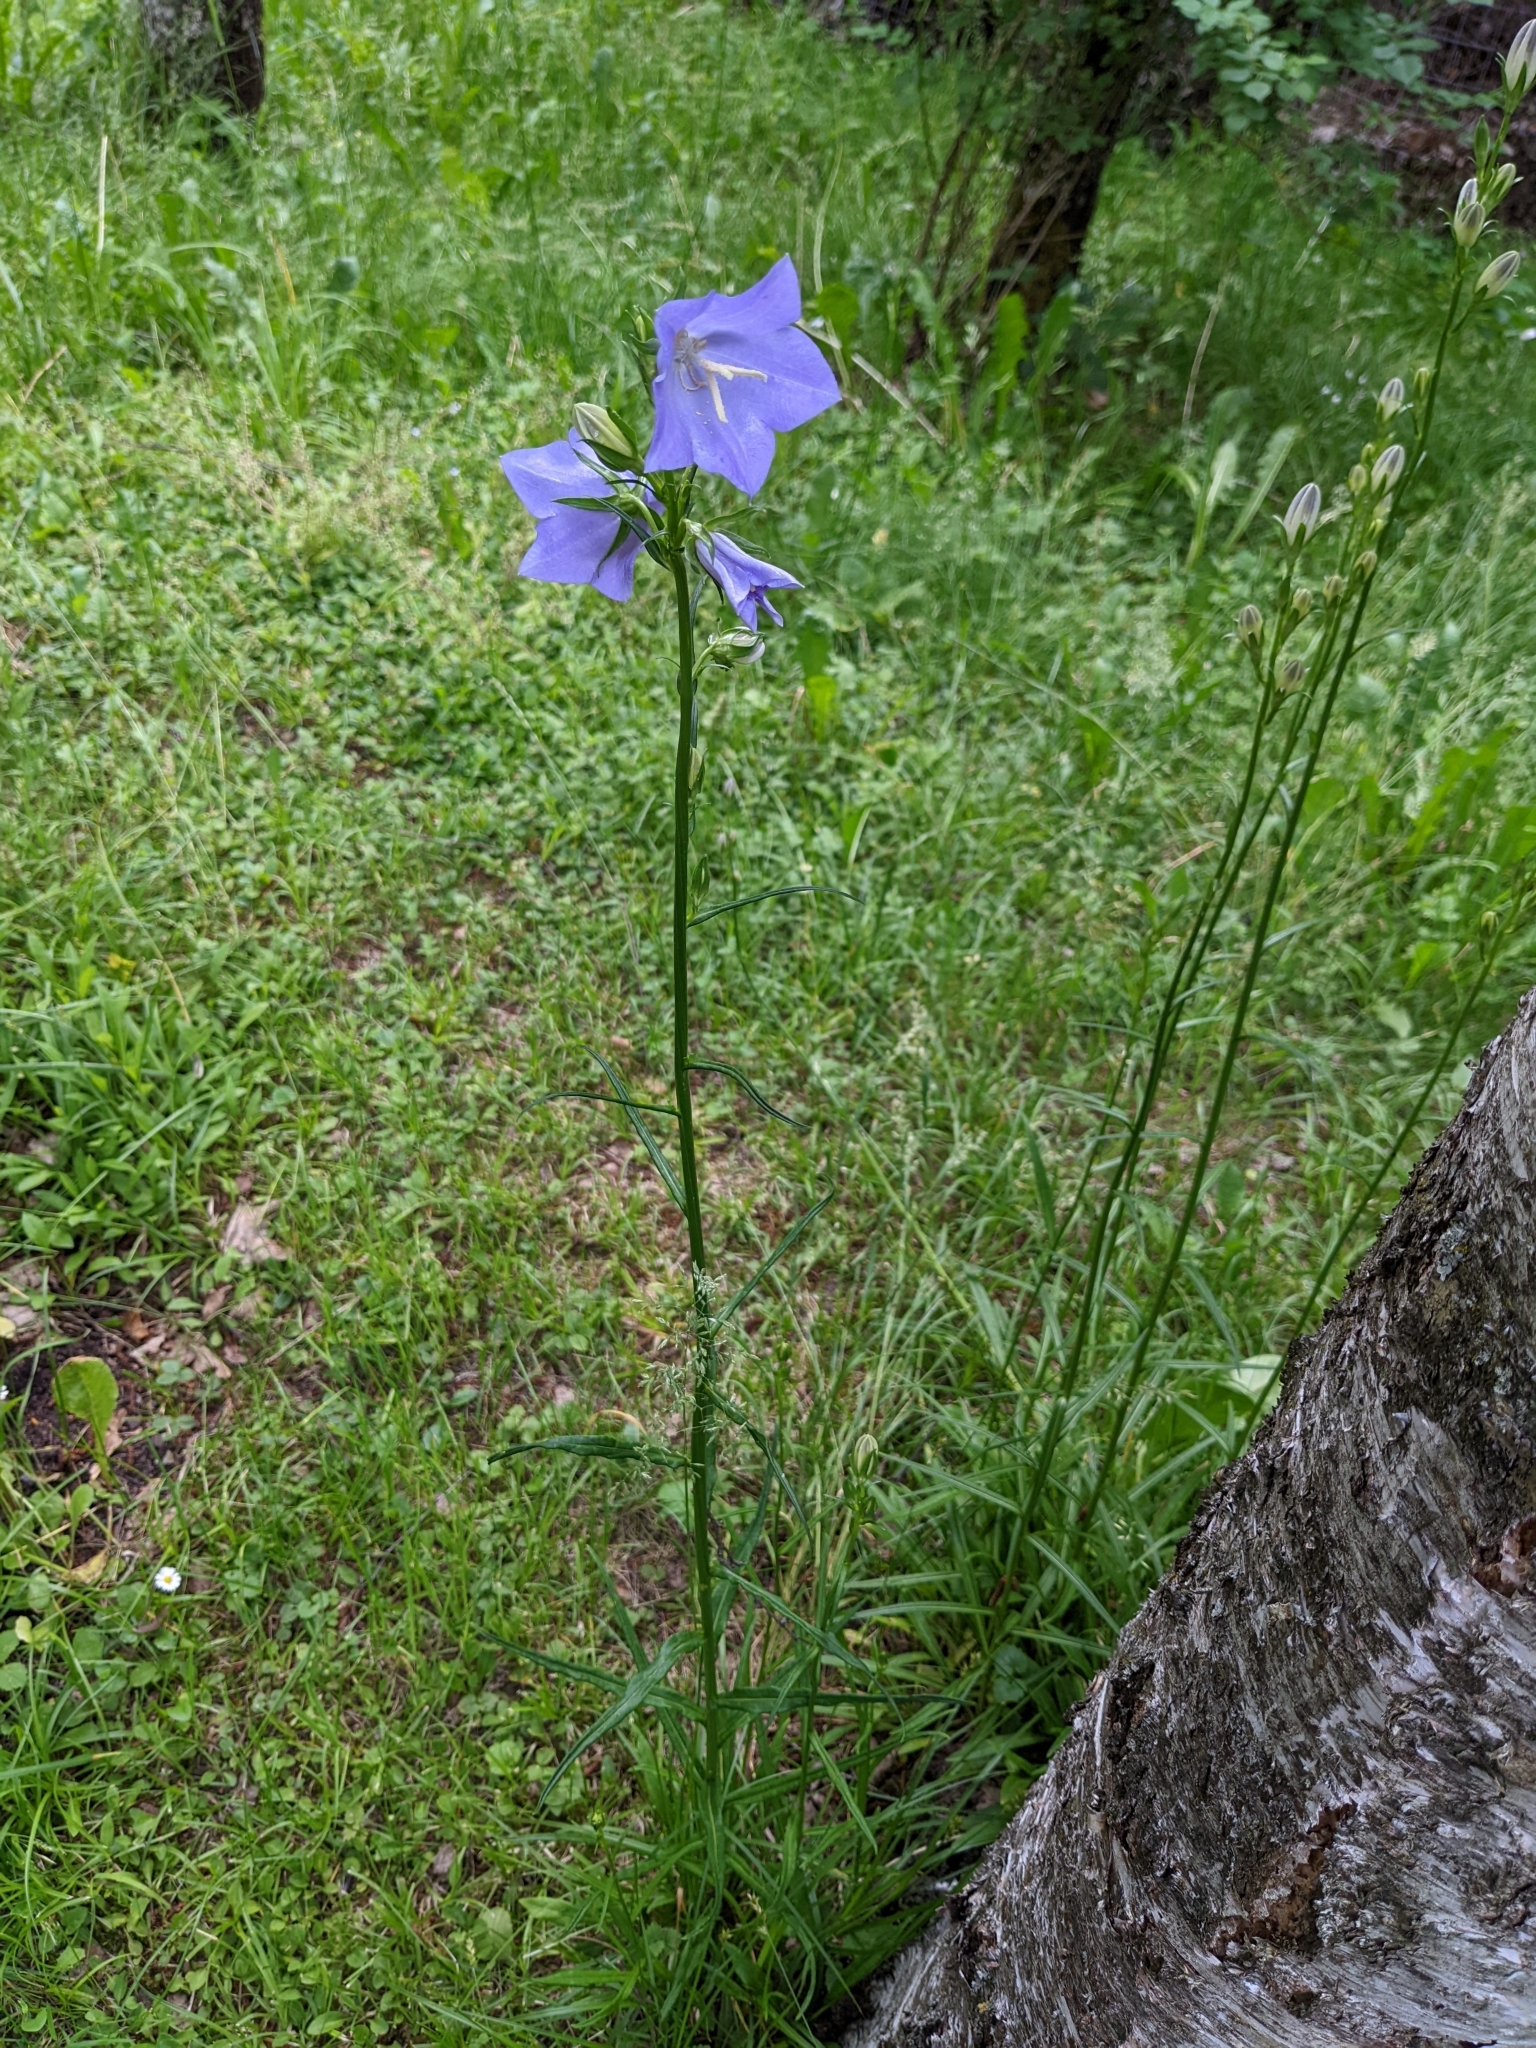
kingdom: Plantae
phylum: Tracheophyta
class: Magnoliopsida
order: Asterales
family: Campanulaceae
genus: Campanula
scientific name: Campanula persicifolia
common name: Peach-leaved bellflower
